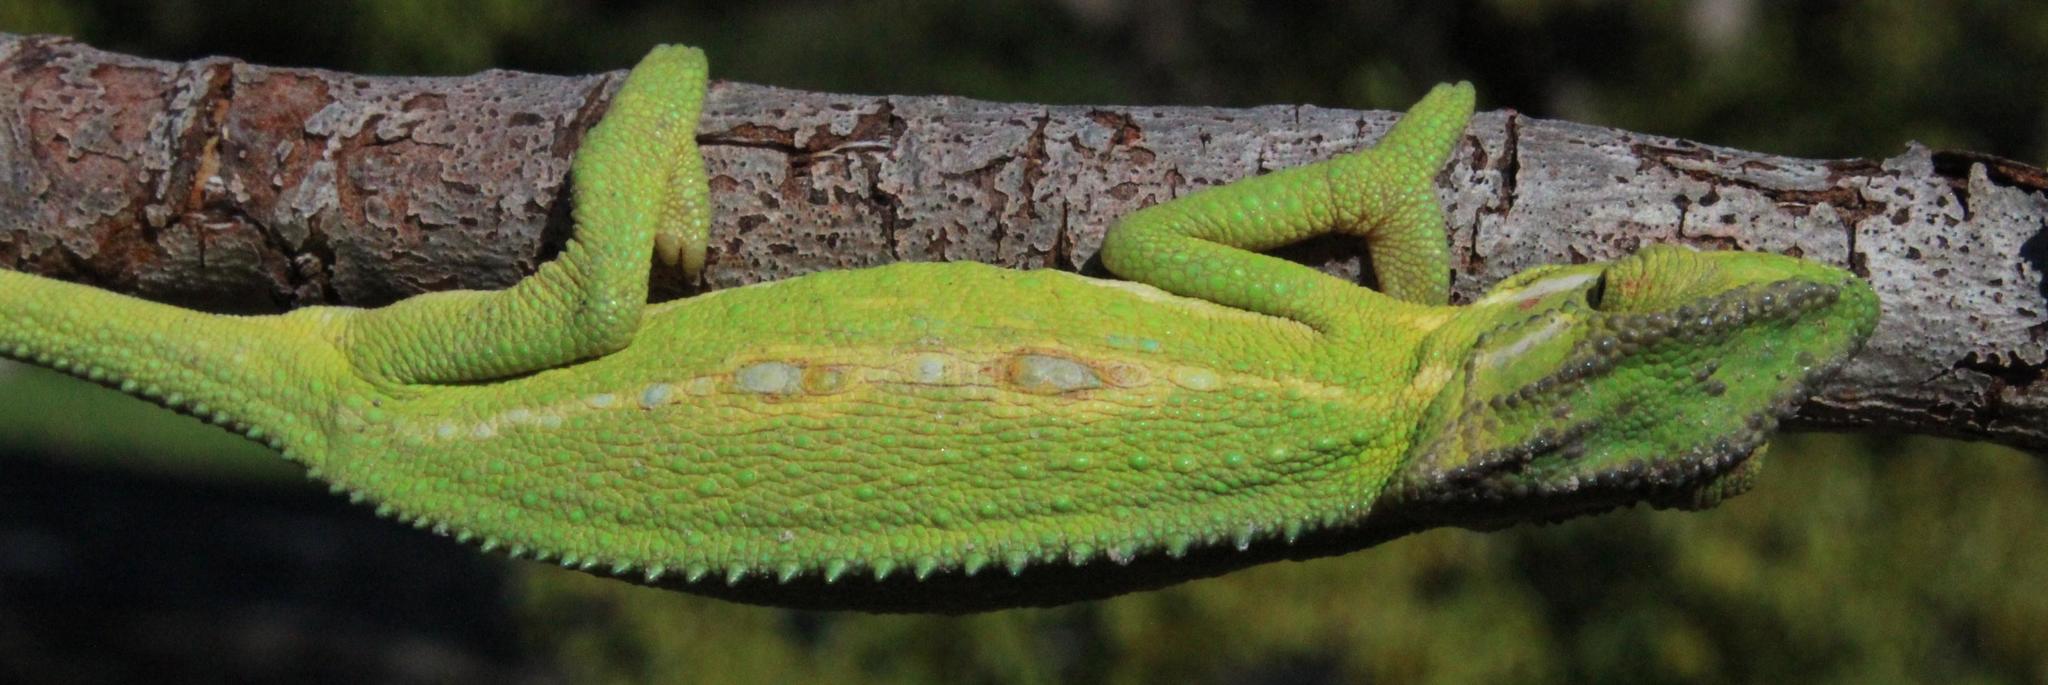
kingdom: Animalia
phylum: Chordata
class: Squamata
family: Chamaeleonidae
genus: Bradypodion
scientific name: Bradypodion pumilum
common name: Cape dwarf chameleon
